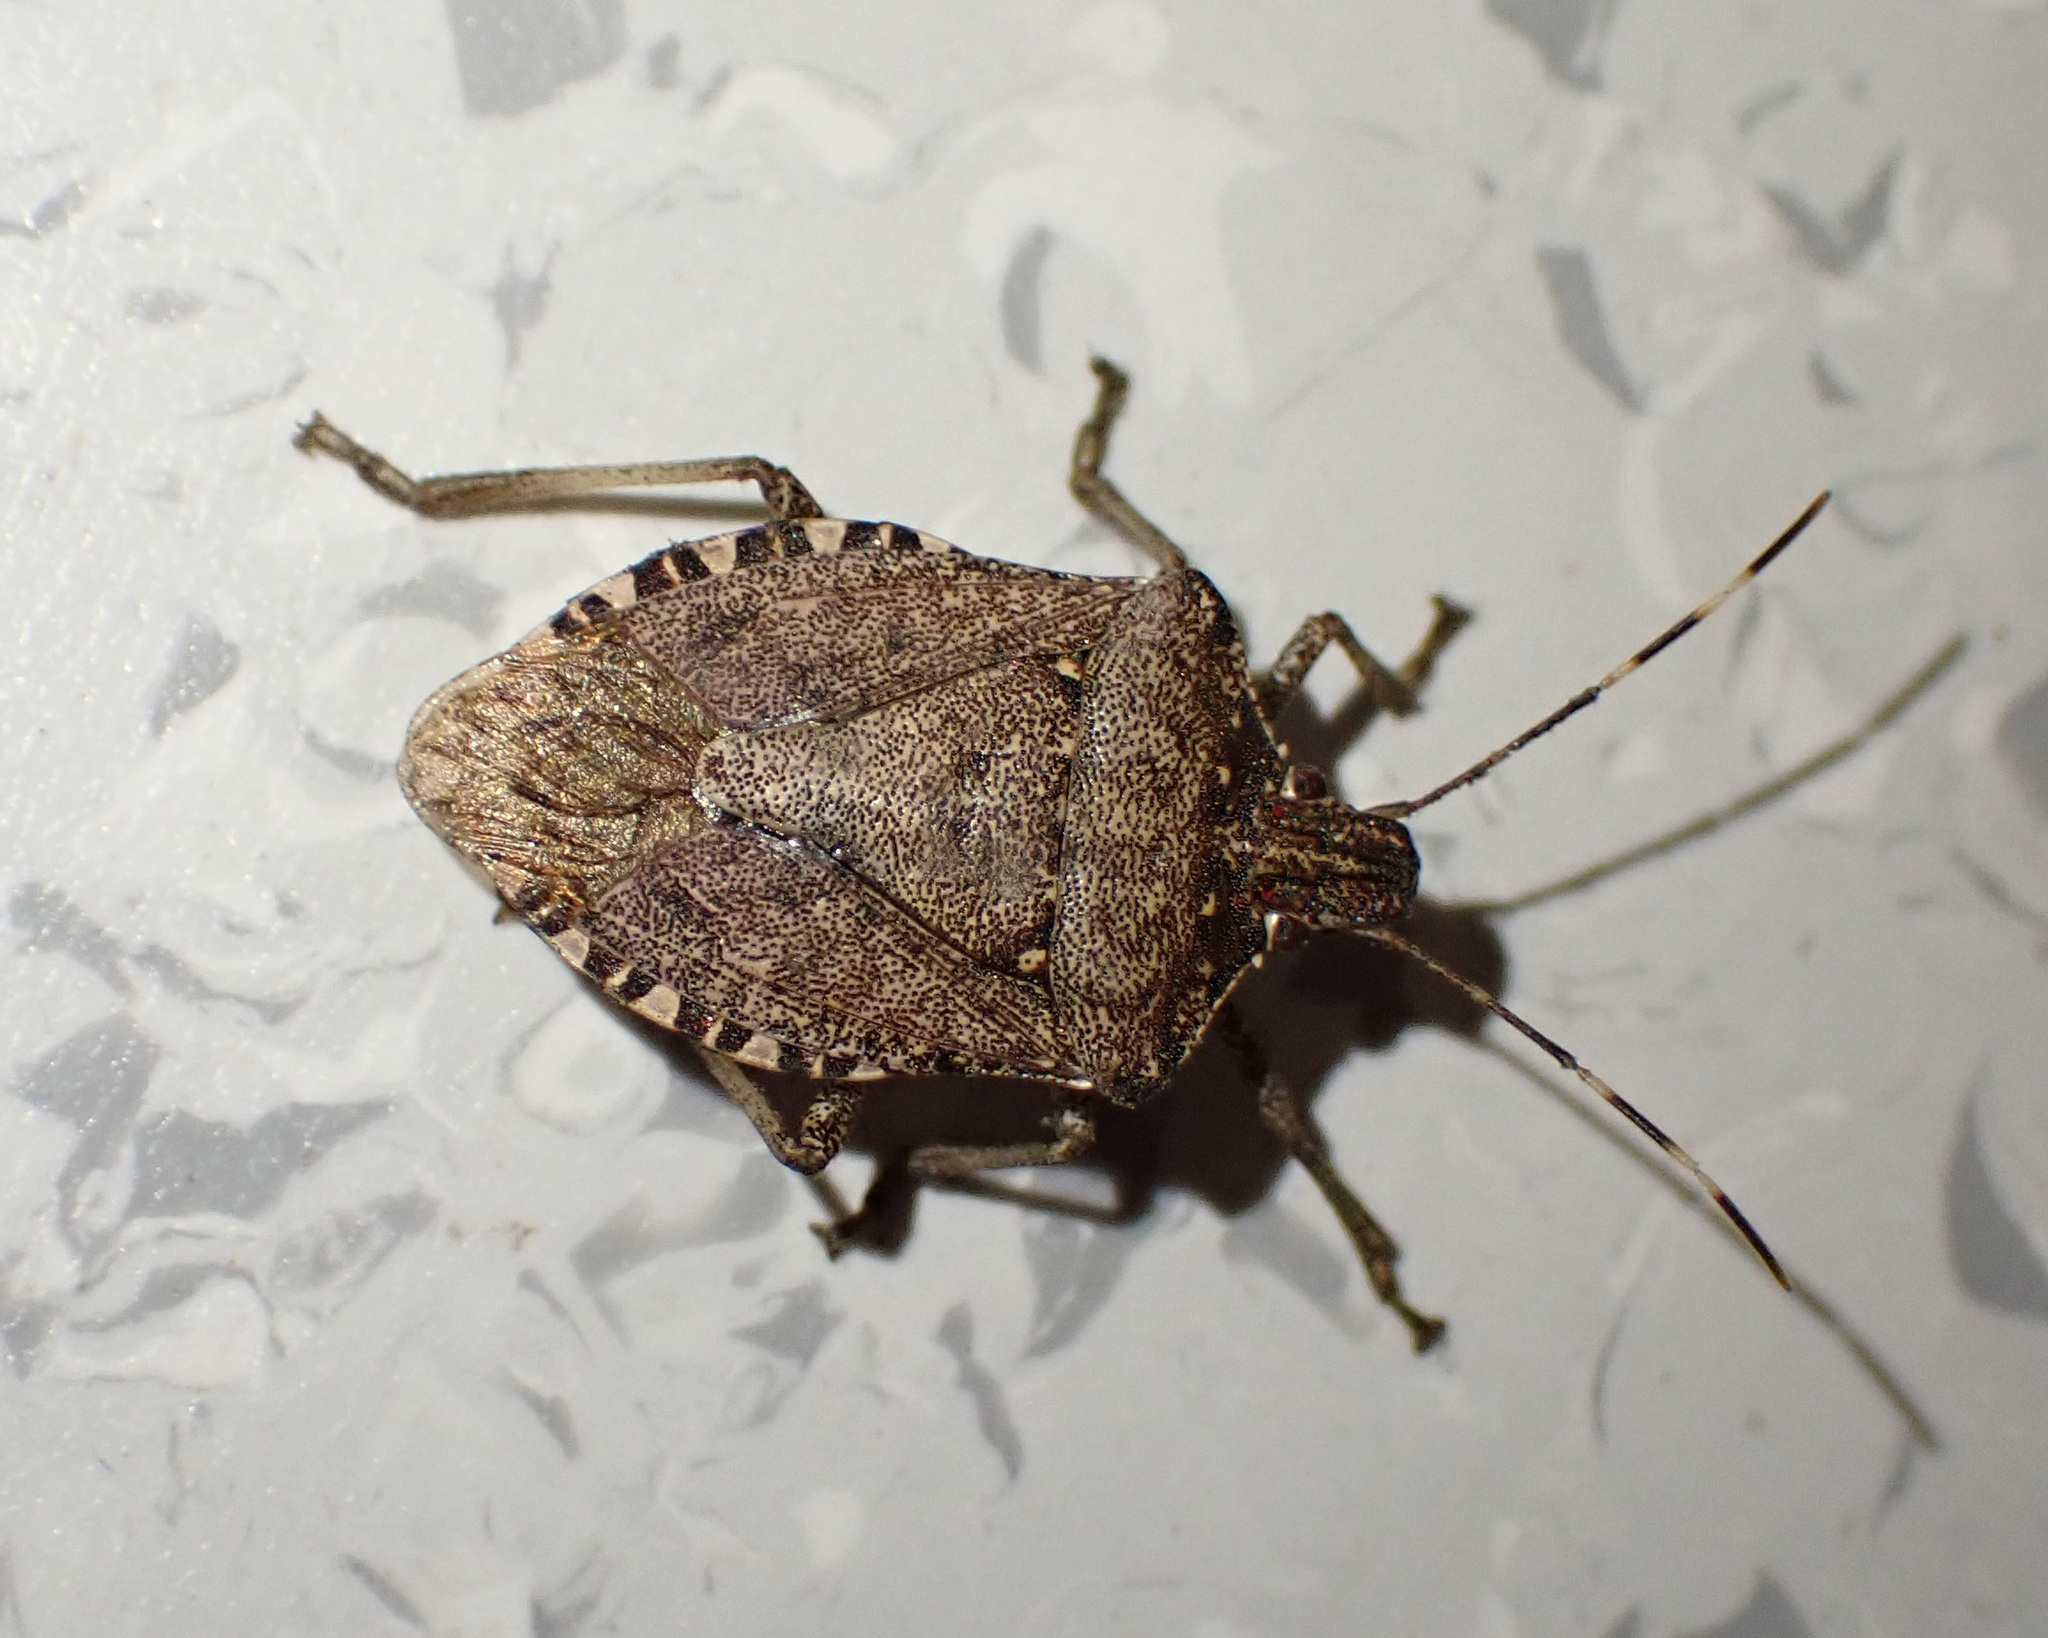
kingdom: Animalia
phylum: Arthropoda
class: Insecta
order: Hemiptera
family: Pentatomidae
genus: Halyomorpha
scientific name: Halyomorpha halys
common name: Brown marmorated stink bug
